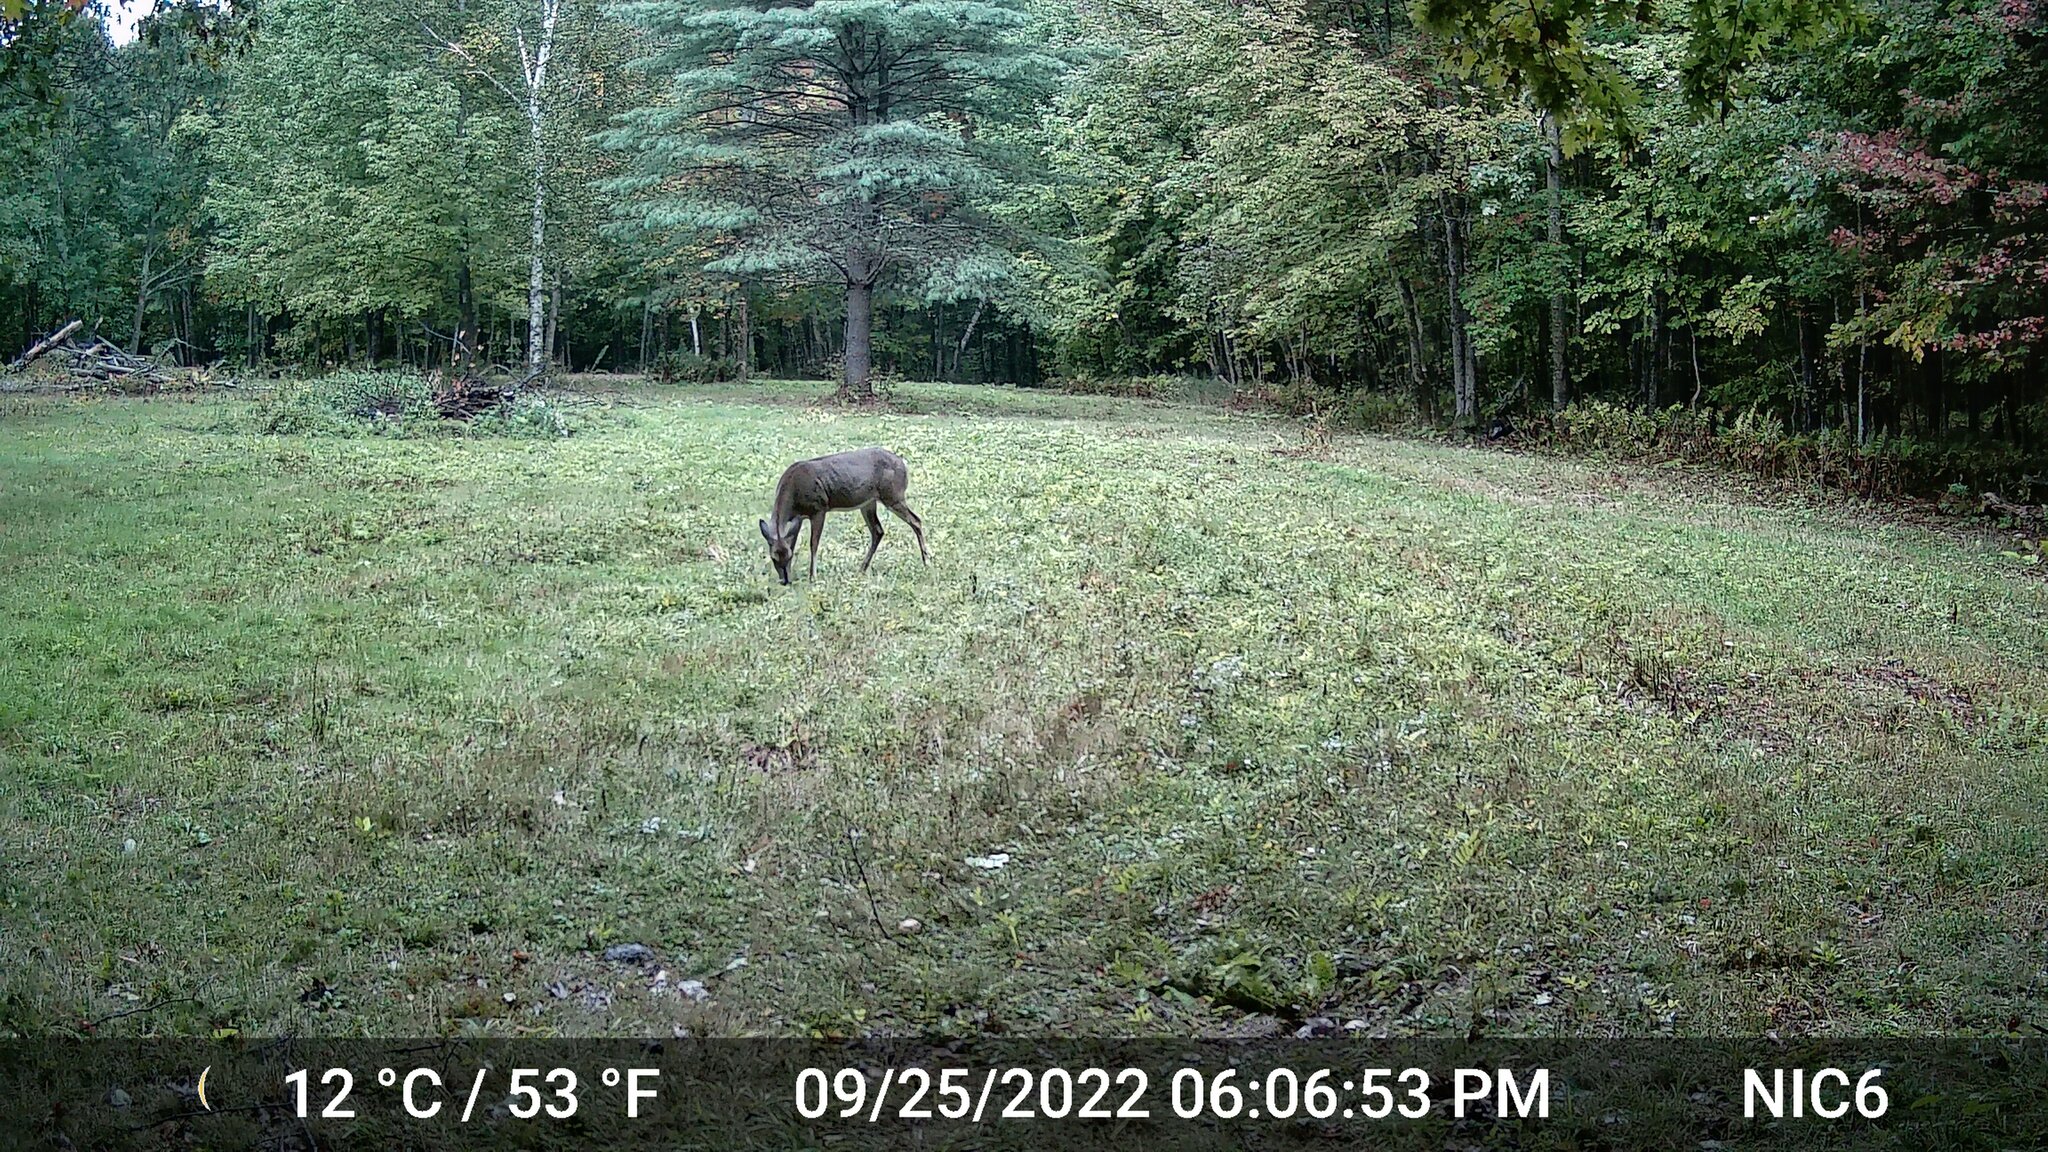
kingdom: Animalia
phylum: Chordata
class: Mammalia
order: Artiodactyla
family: Cervidae
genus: Odocoileus
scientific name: Odocoileus virginianus
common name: White-tailed deer
